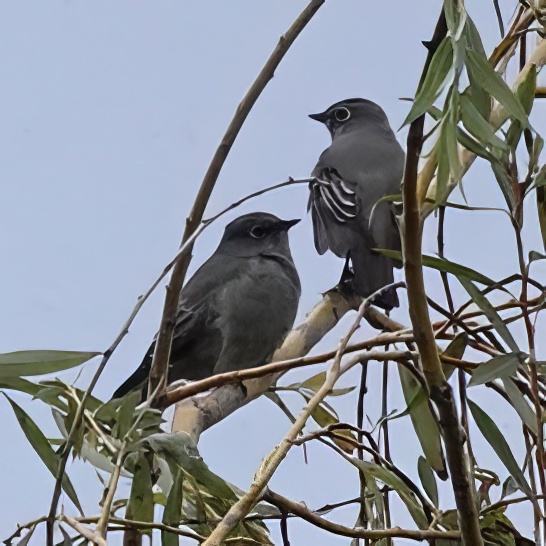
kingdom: Animalia
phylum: Chordata
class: Aves
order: Passeriformes
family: Turdidae
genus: Myadestes
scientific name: Myadestes townsendi
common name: Townsend's solitaire
